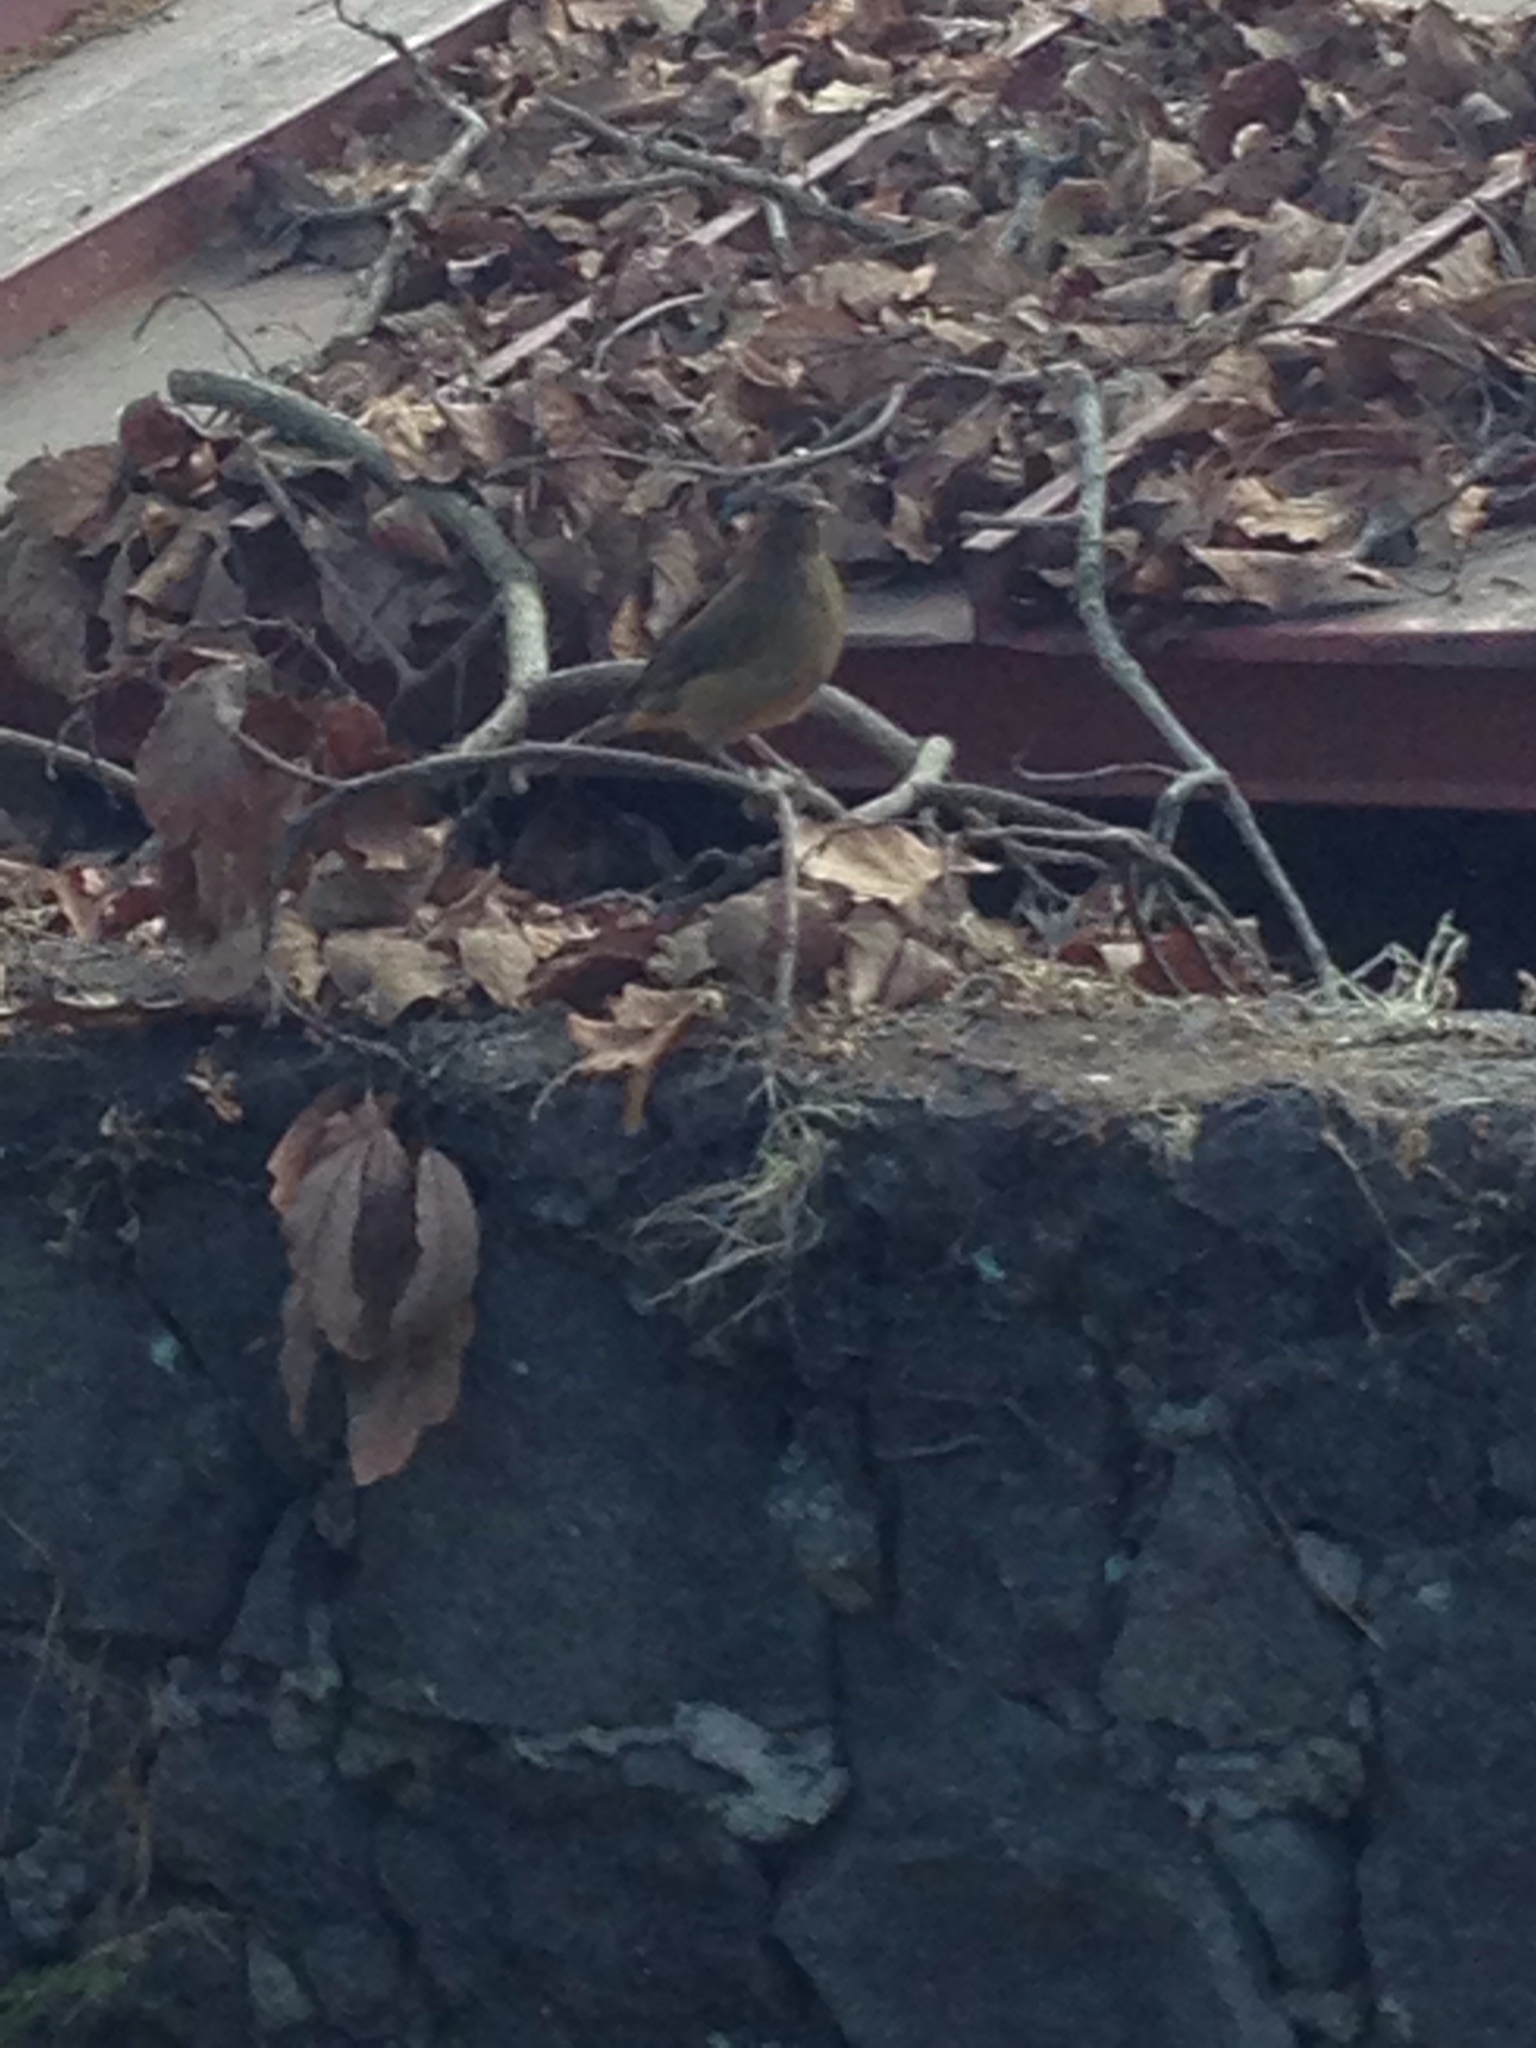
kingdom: Animalia
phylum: Chordata
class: Aves
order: Passeriformes
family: Turdidae
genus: Turdus
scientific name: Turdus grayi
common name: Clay-colored thrush
